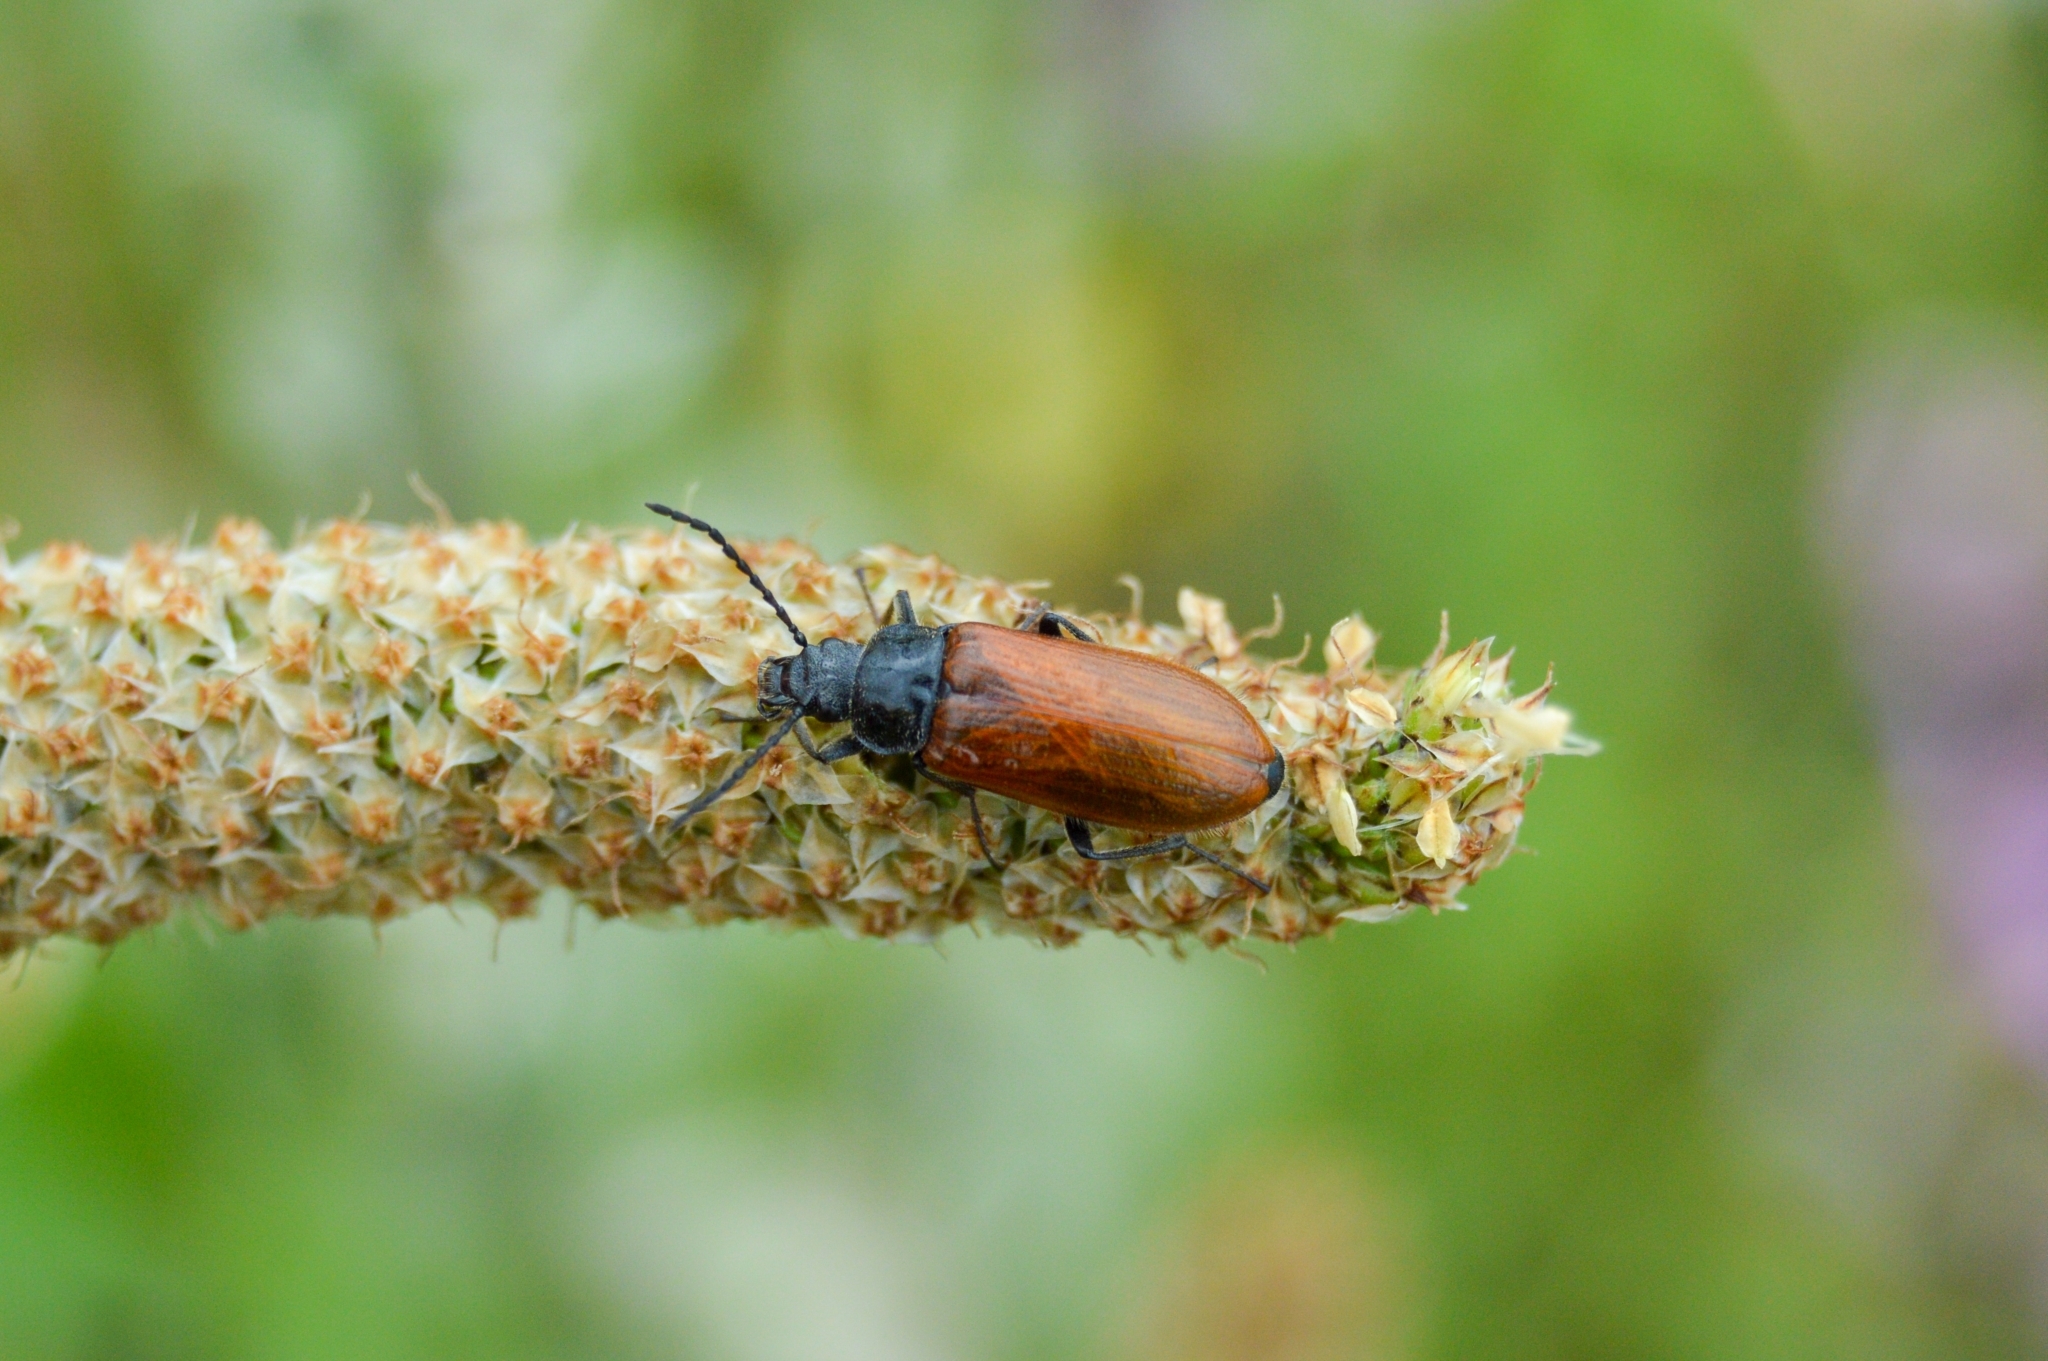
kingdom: Animalia
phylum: Arthropoda
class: Insecta
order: Coleoptera
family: Tenebrionidae
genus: Omophlus
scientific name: Omophlus lepturoides
